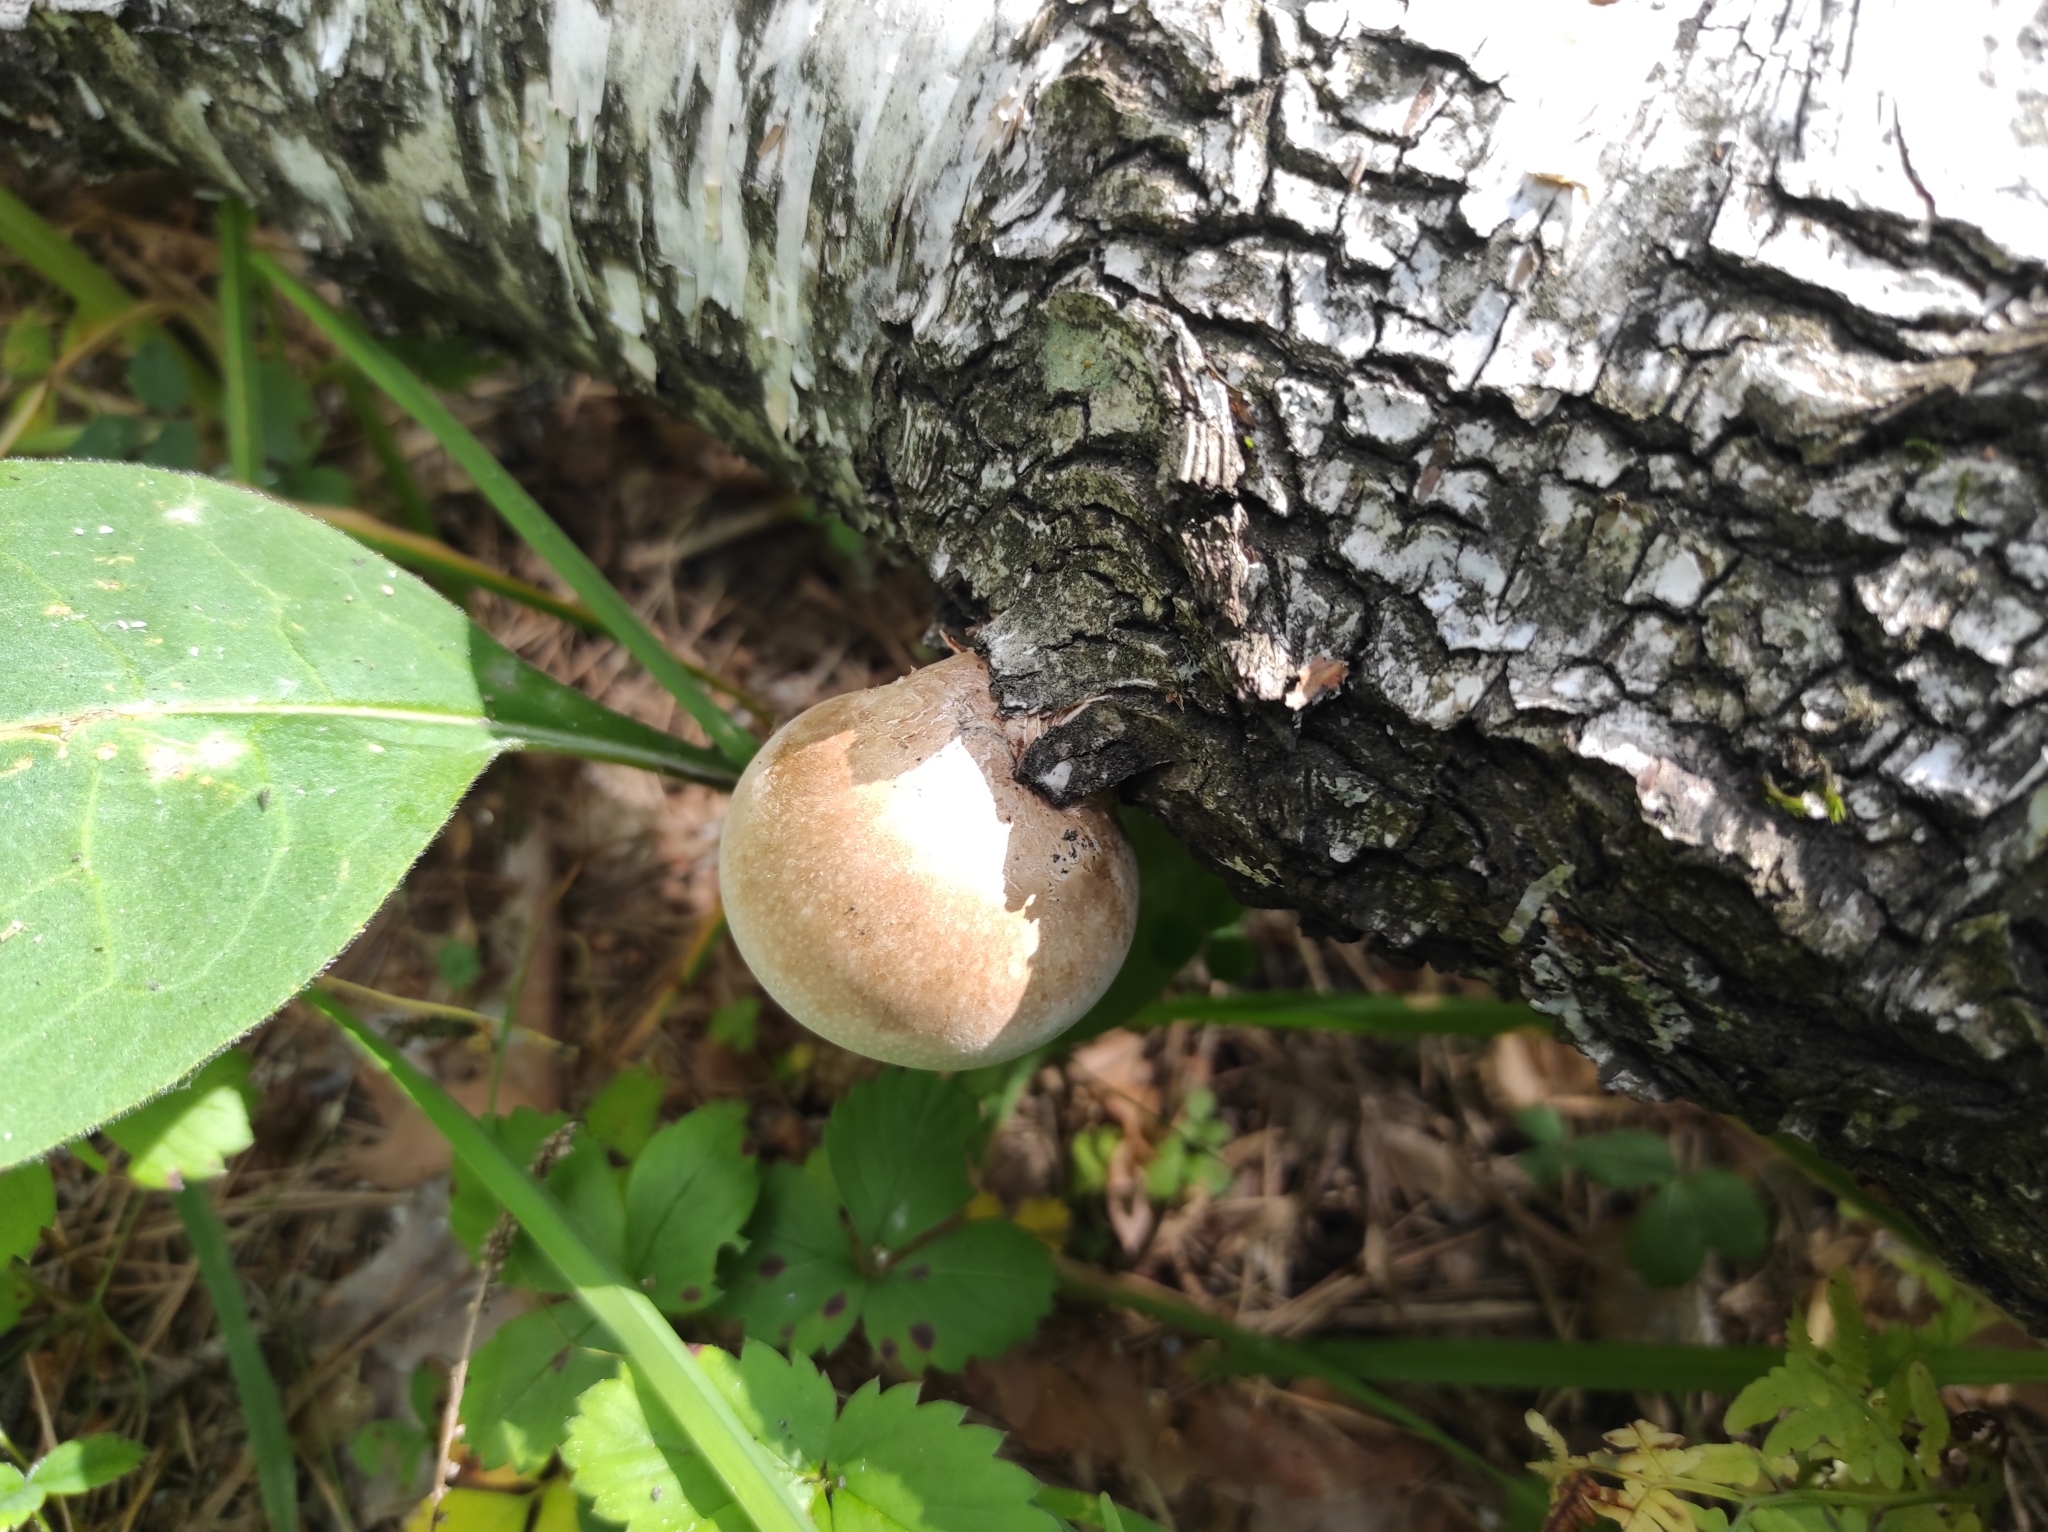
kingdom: Fungi
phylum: Basidiomycota
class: Agaricomycetes
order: Polyporales
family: Fomitopsidaceae
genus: Fomitopsis
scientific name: Fomitopsis betulina
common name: Birch polypore
